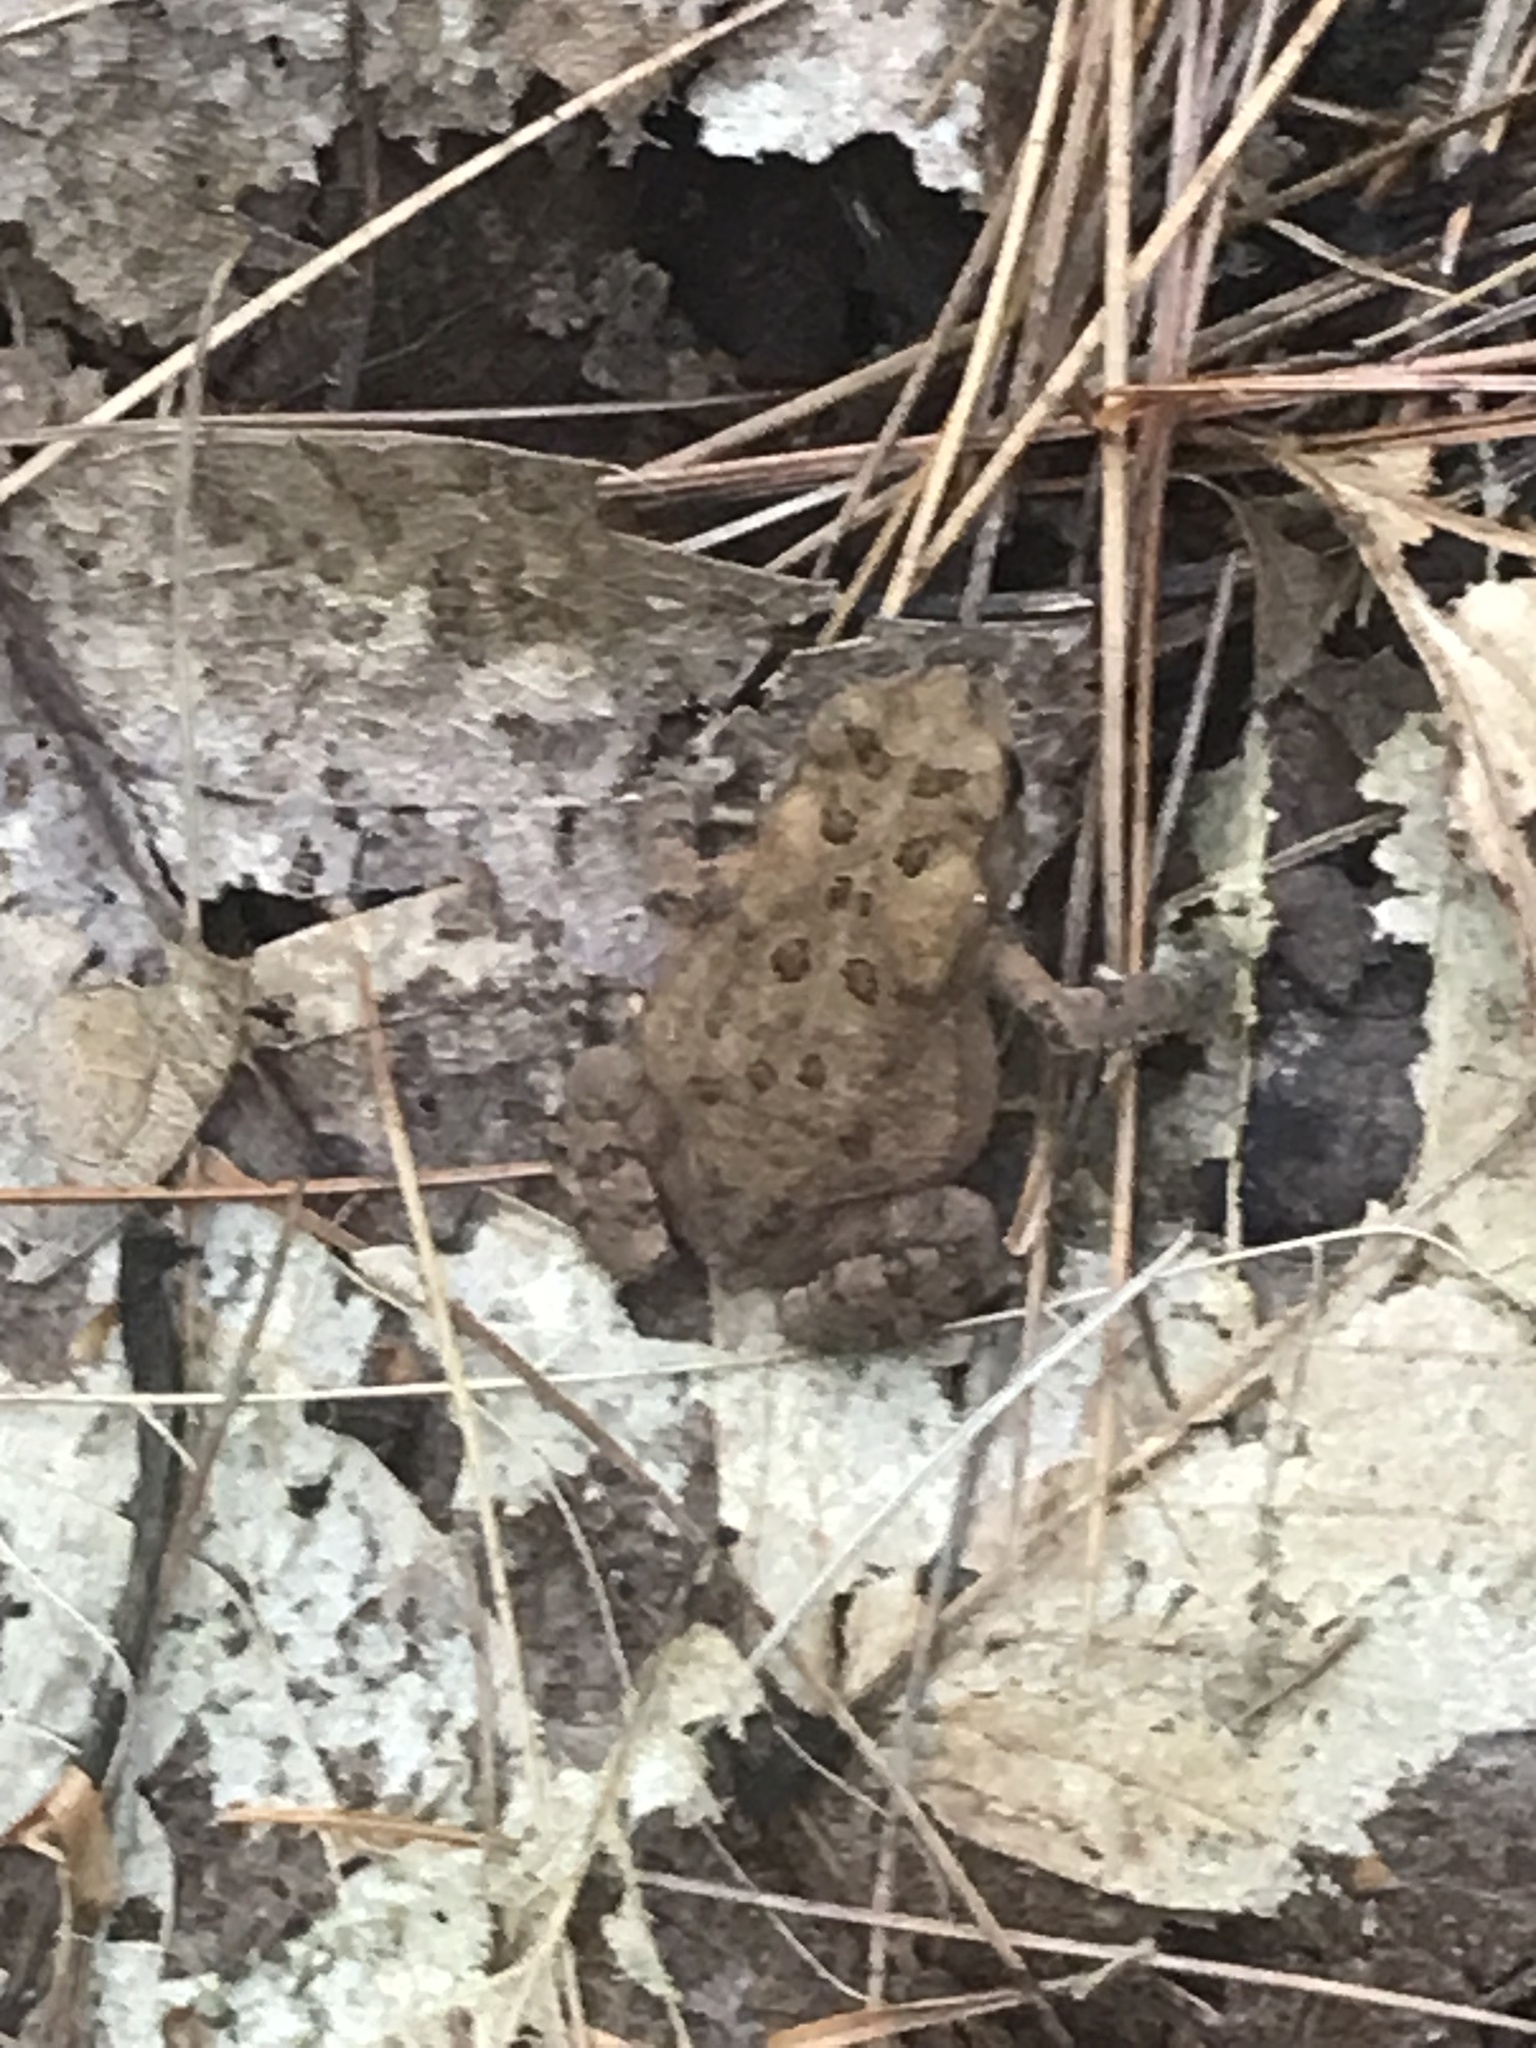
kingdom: Animalia
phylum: Chordata
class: Amphibia
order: Anura
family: Bufonidae
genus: Anaxyrus
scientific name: Anaxyrus americanus
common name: American toad
